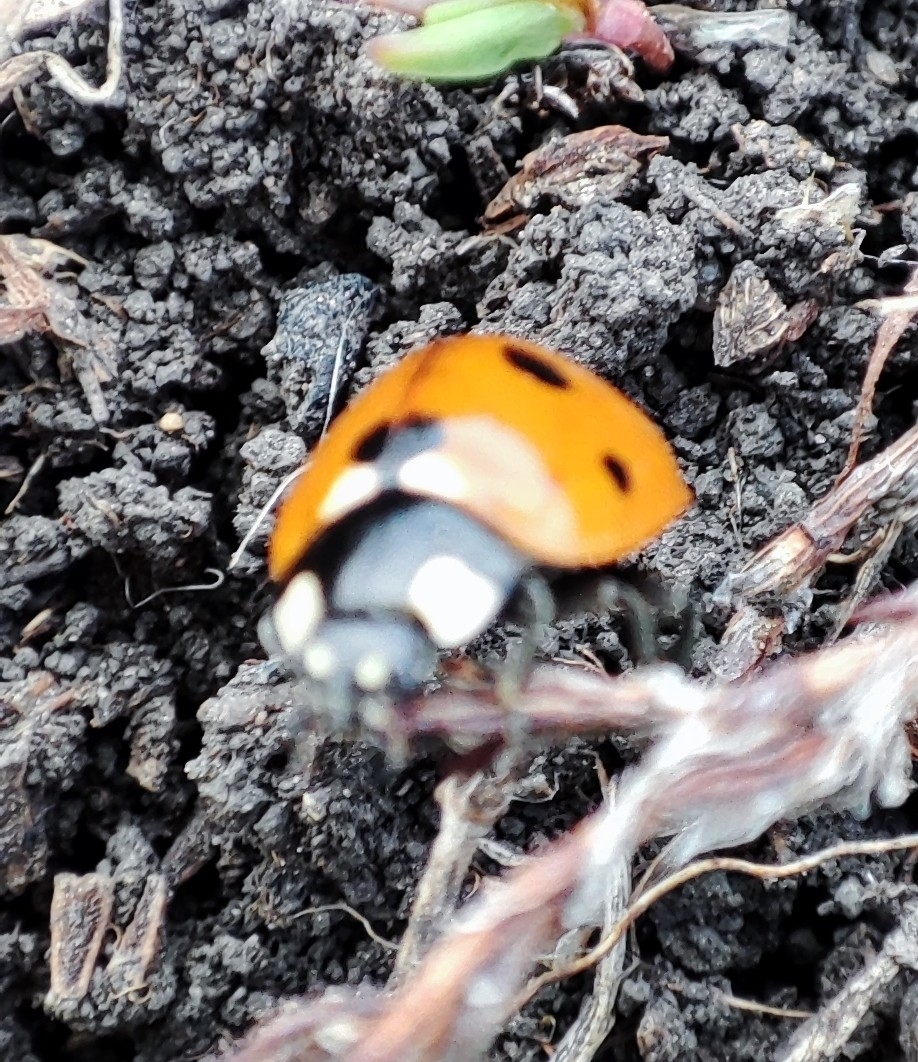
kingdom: Animalia
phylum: Arthropoda
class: Insecta
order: Coleoptera
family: Coccinellidae
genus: Coccinella
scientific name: Coccinella septempunctata
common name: Sevenspotted lady beetle
